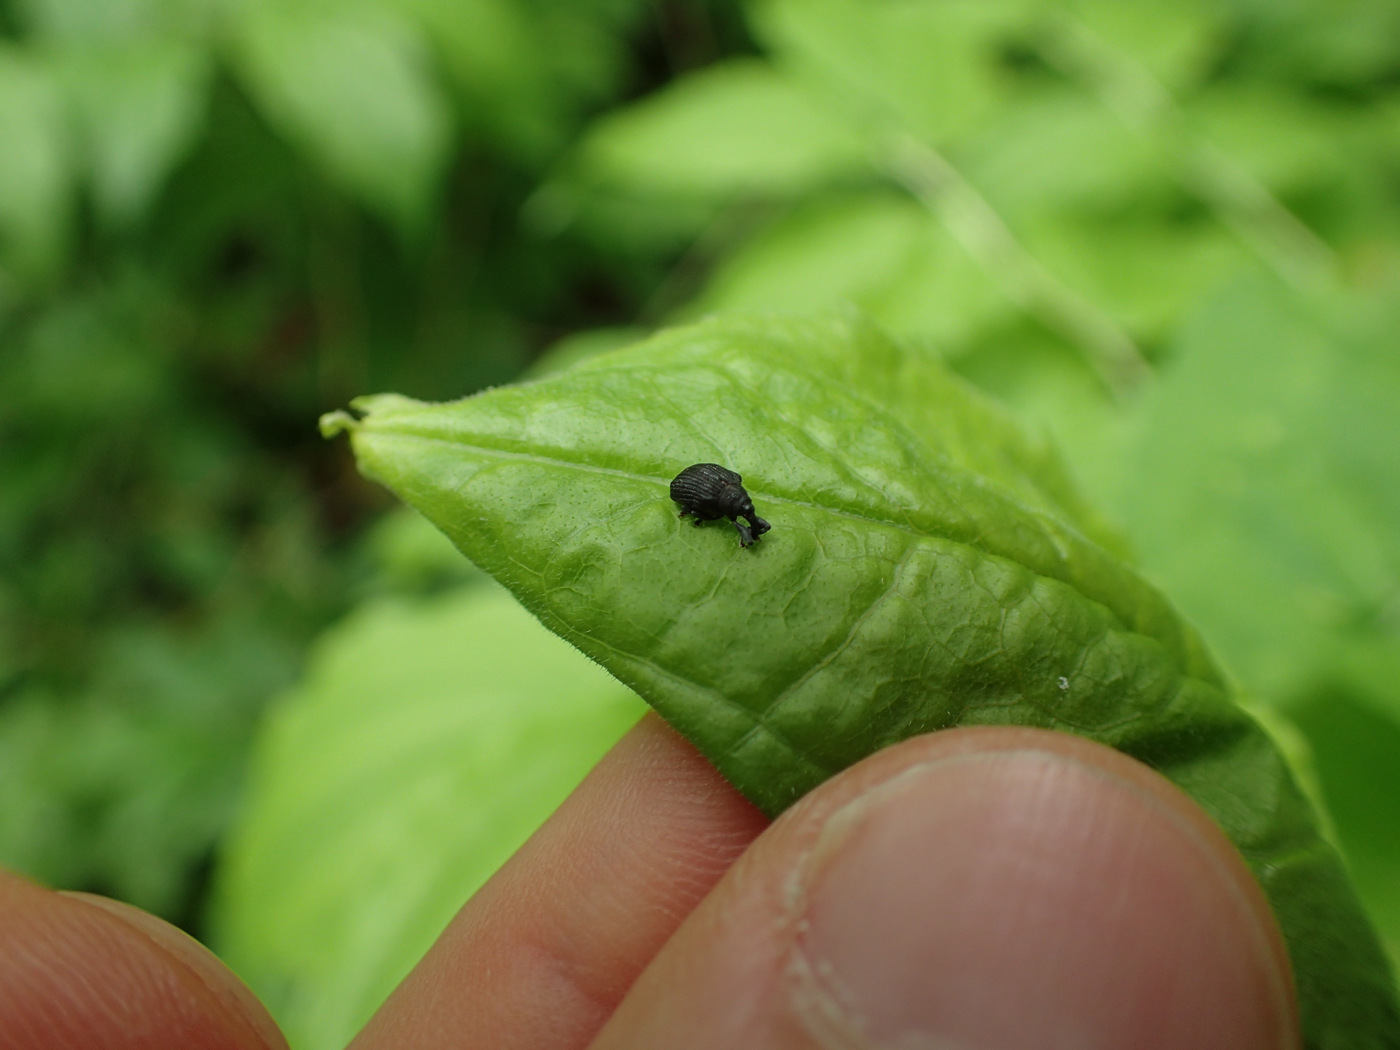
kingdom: Animalia
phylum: Arthropoda
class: Insecta
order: Coleoptera
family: Curculionidae
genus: Odontopus
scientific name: Odontopus calceatus
